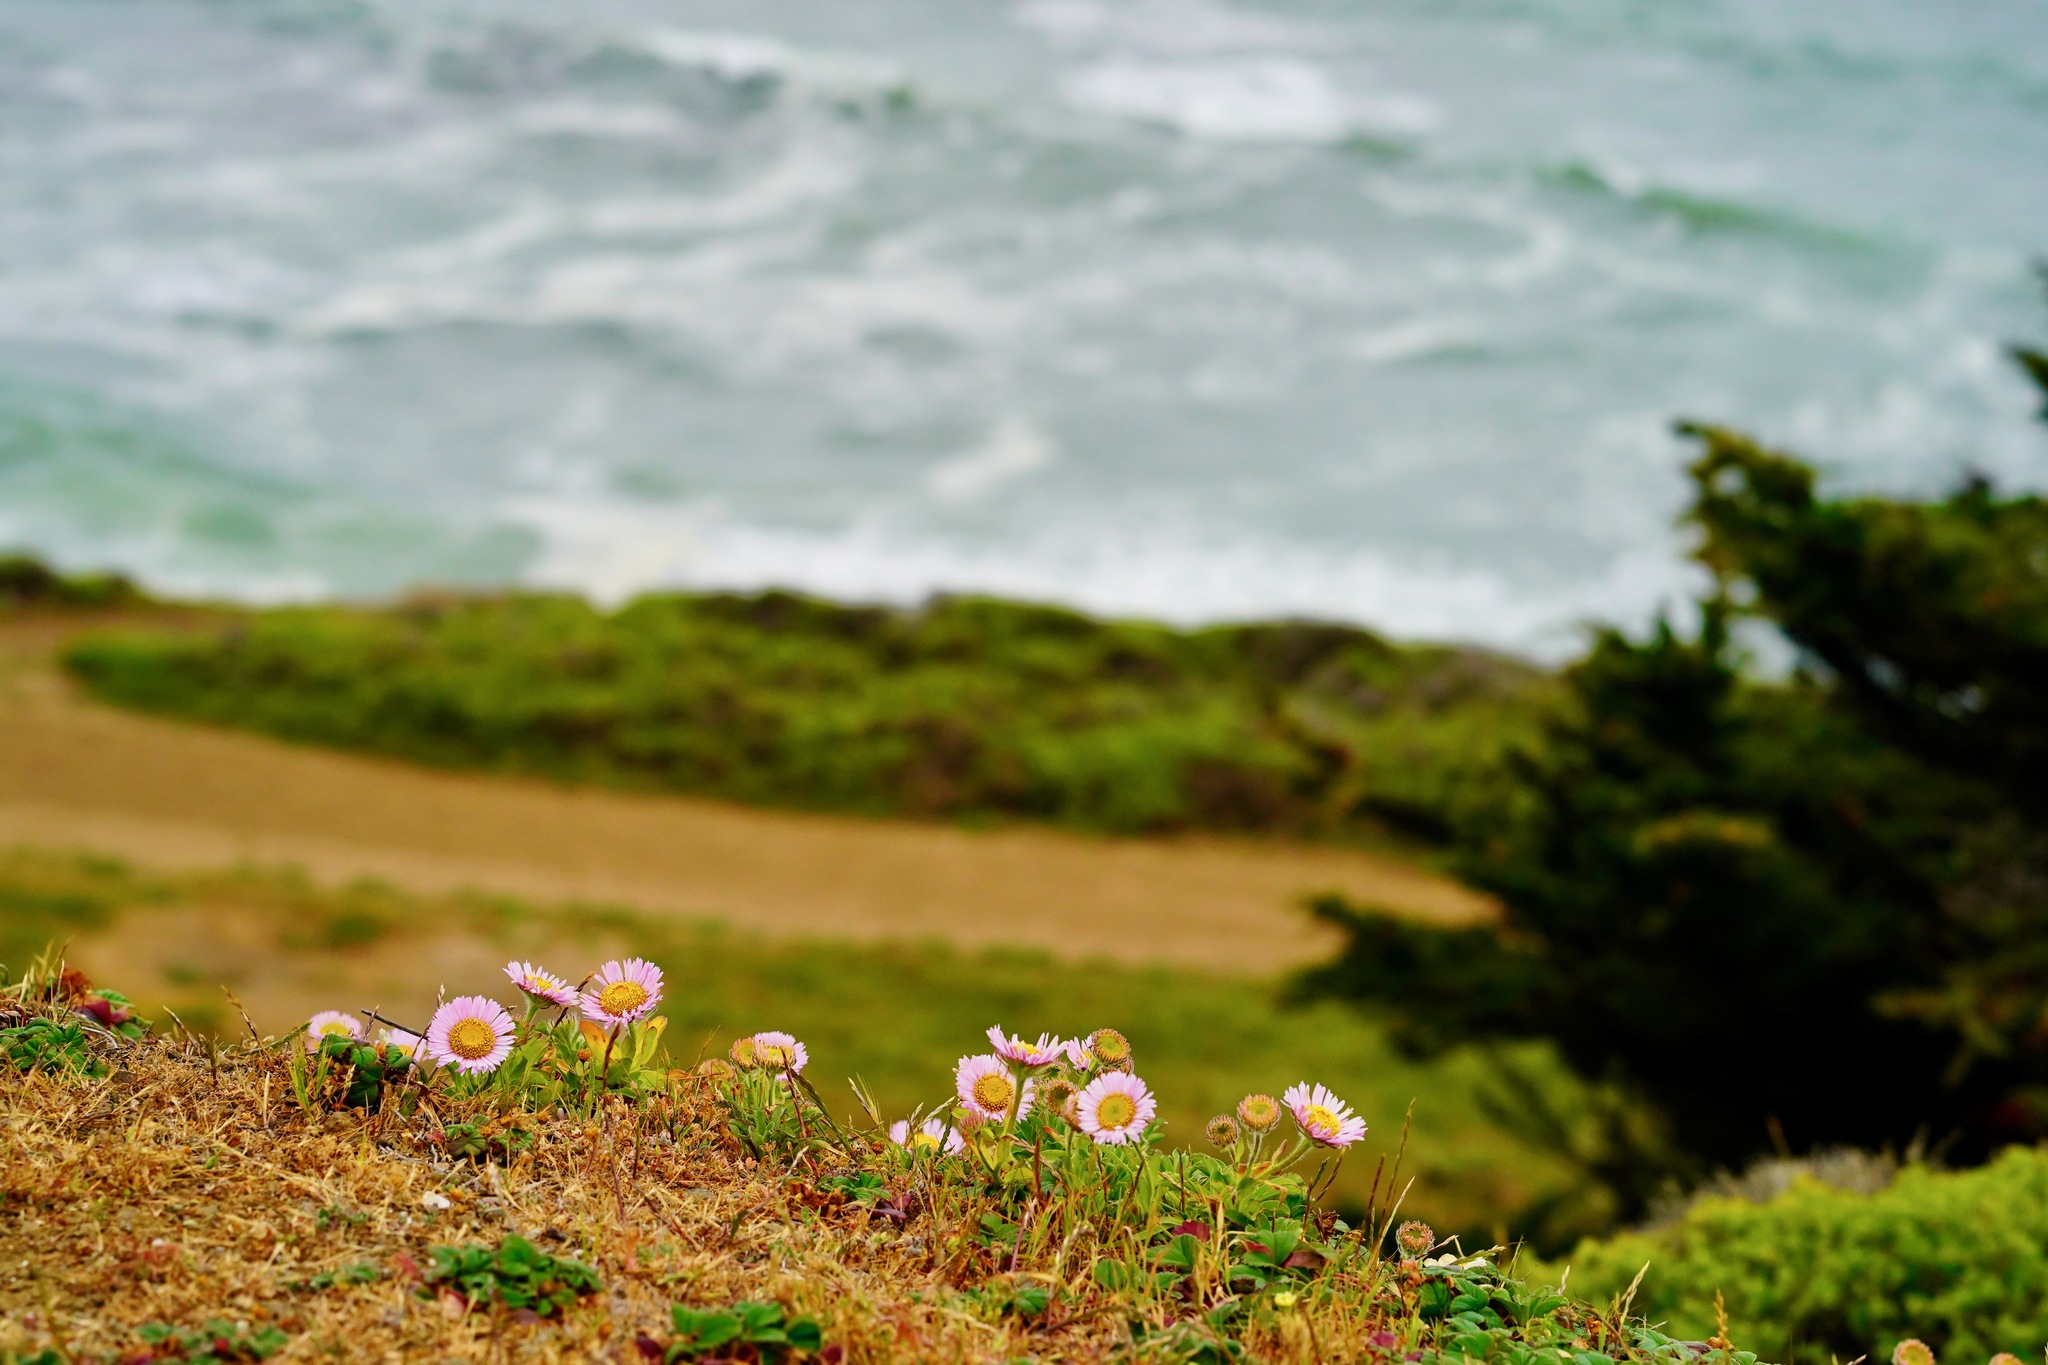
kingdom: Plantae
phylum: Tracheophyta
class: Magnoliopsida
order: Asterales
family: Asteraceae
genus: Erigeron
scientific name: Erigeron glaucus
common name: Seaside daisy
